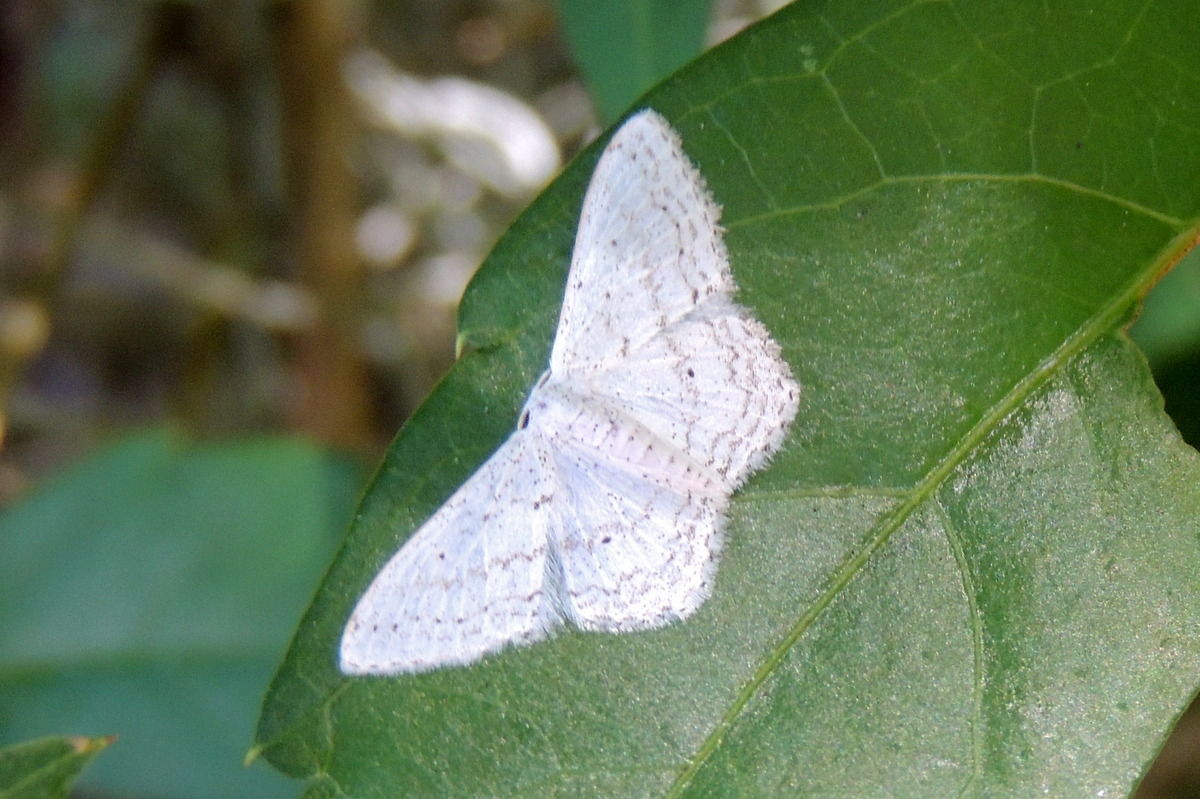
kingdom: Animalia
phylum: Arthropoda
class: Insecta
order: Lepidoptera
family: Geometridae
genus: Idaea
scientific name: Idaea tacturata
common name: Dot-lined wave
